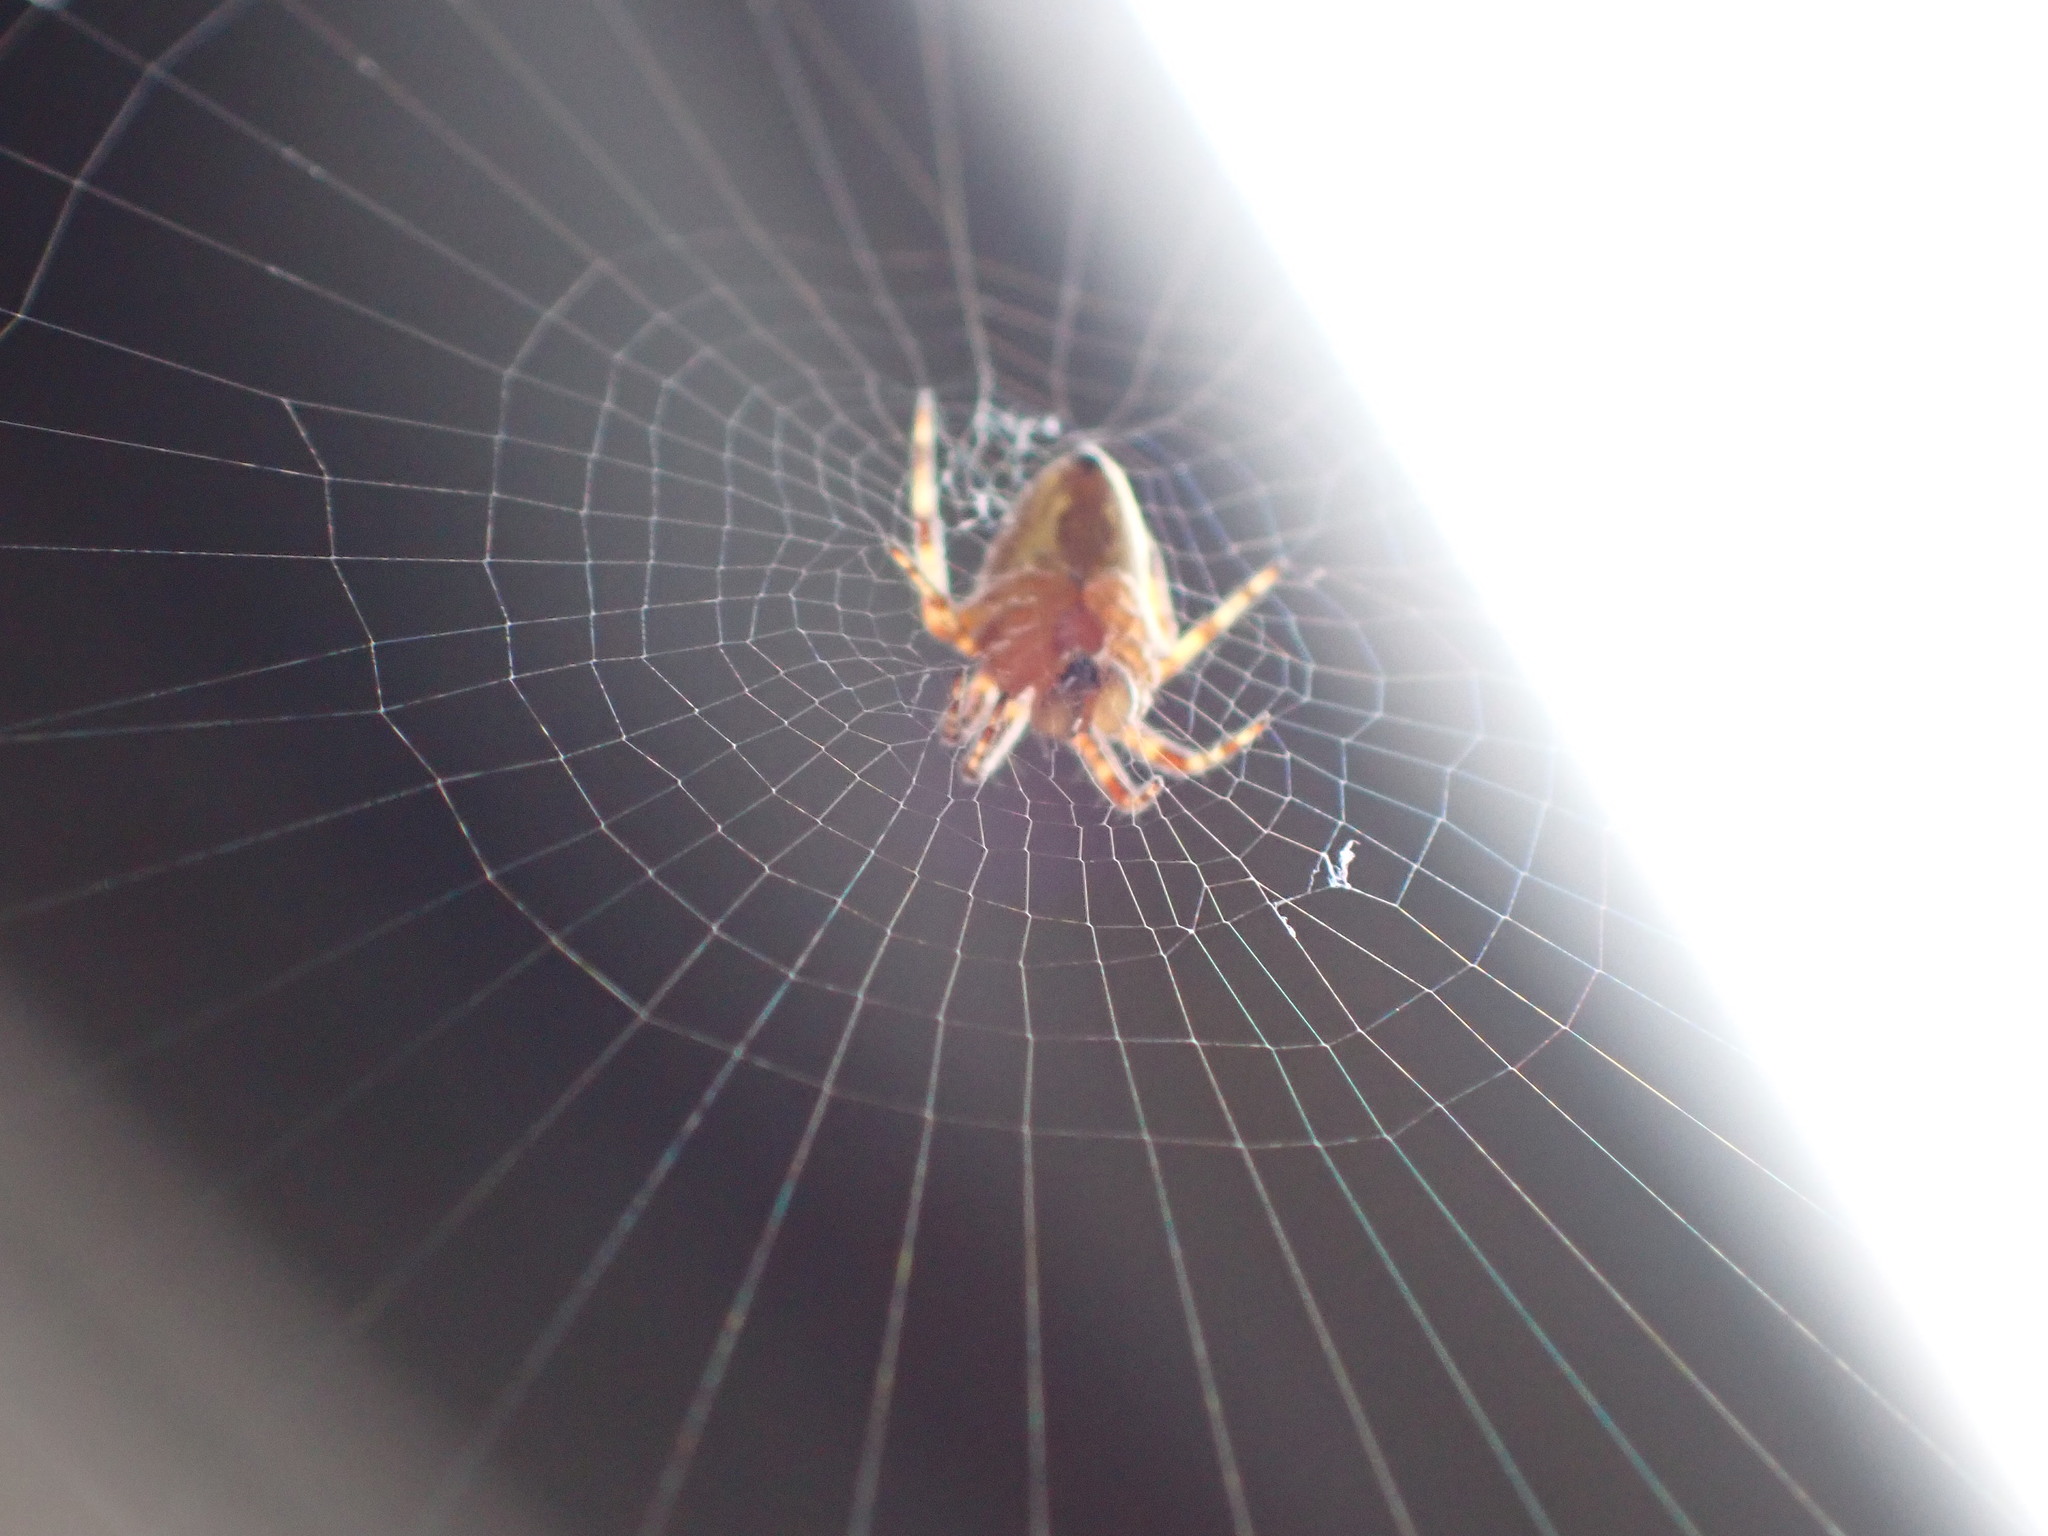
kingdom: Animalia
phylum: Arthropoda
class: Arachnida
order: Araneae
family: Araneidae
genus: Araneus
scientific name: Araneus diadematus
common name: Cross orbweaver
